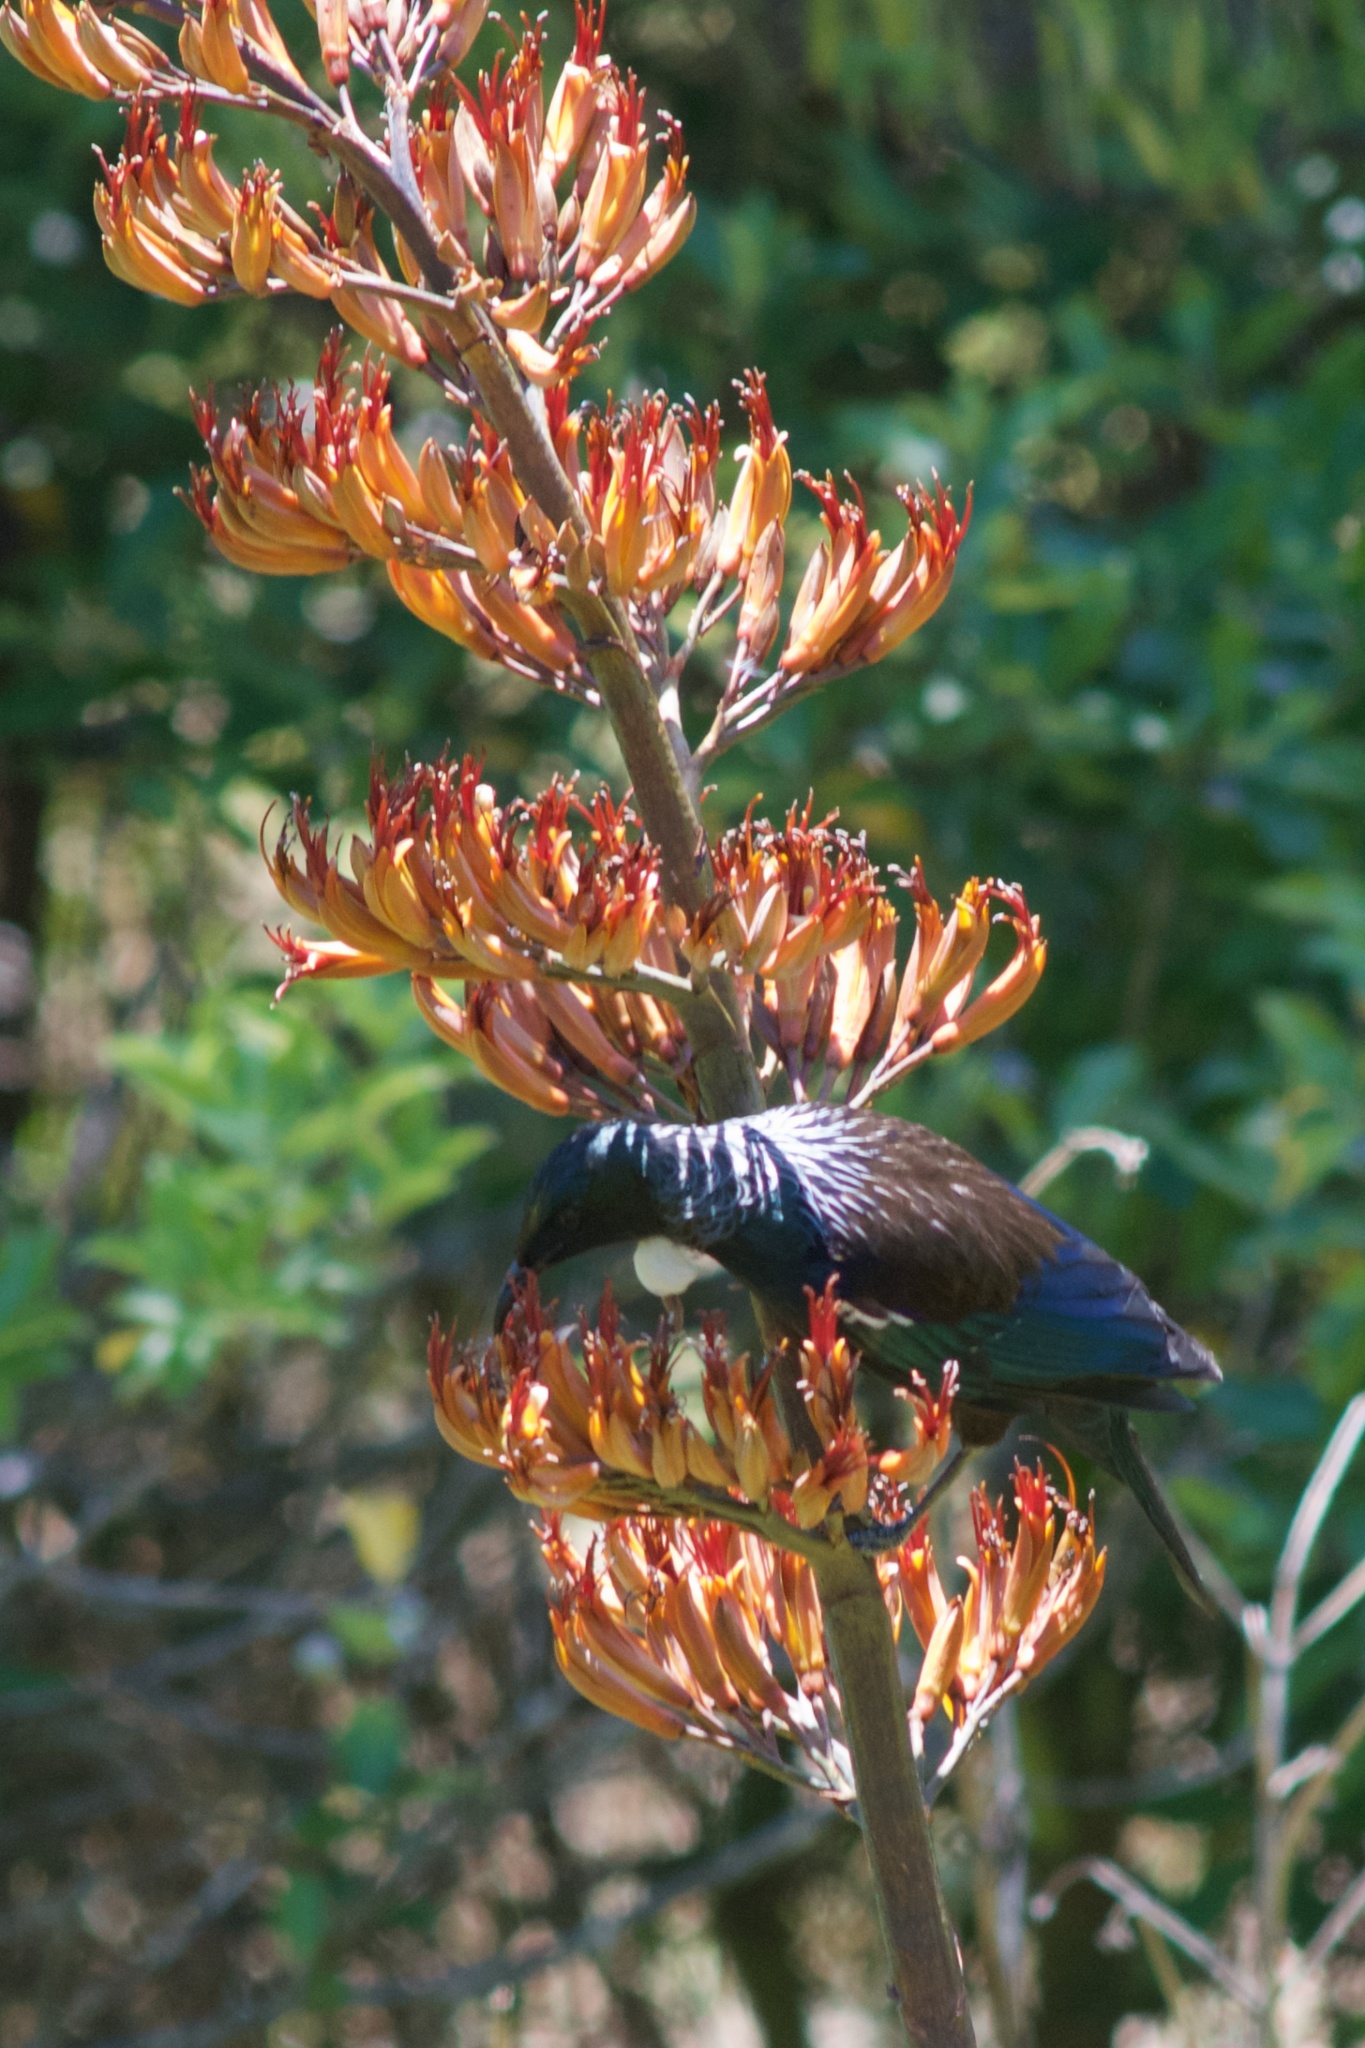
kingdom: Animalia
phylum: Chordata
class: Aves
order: Passeriformes
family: Meliphagidae
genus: Prosthemadera
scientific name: Prosthemadera novaeseelandiae
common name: Tui
